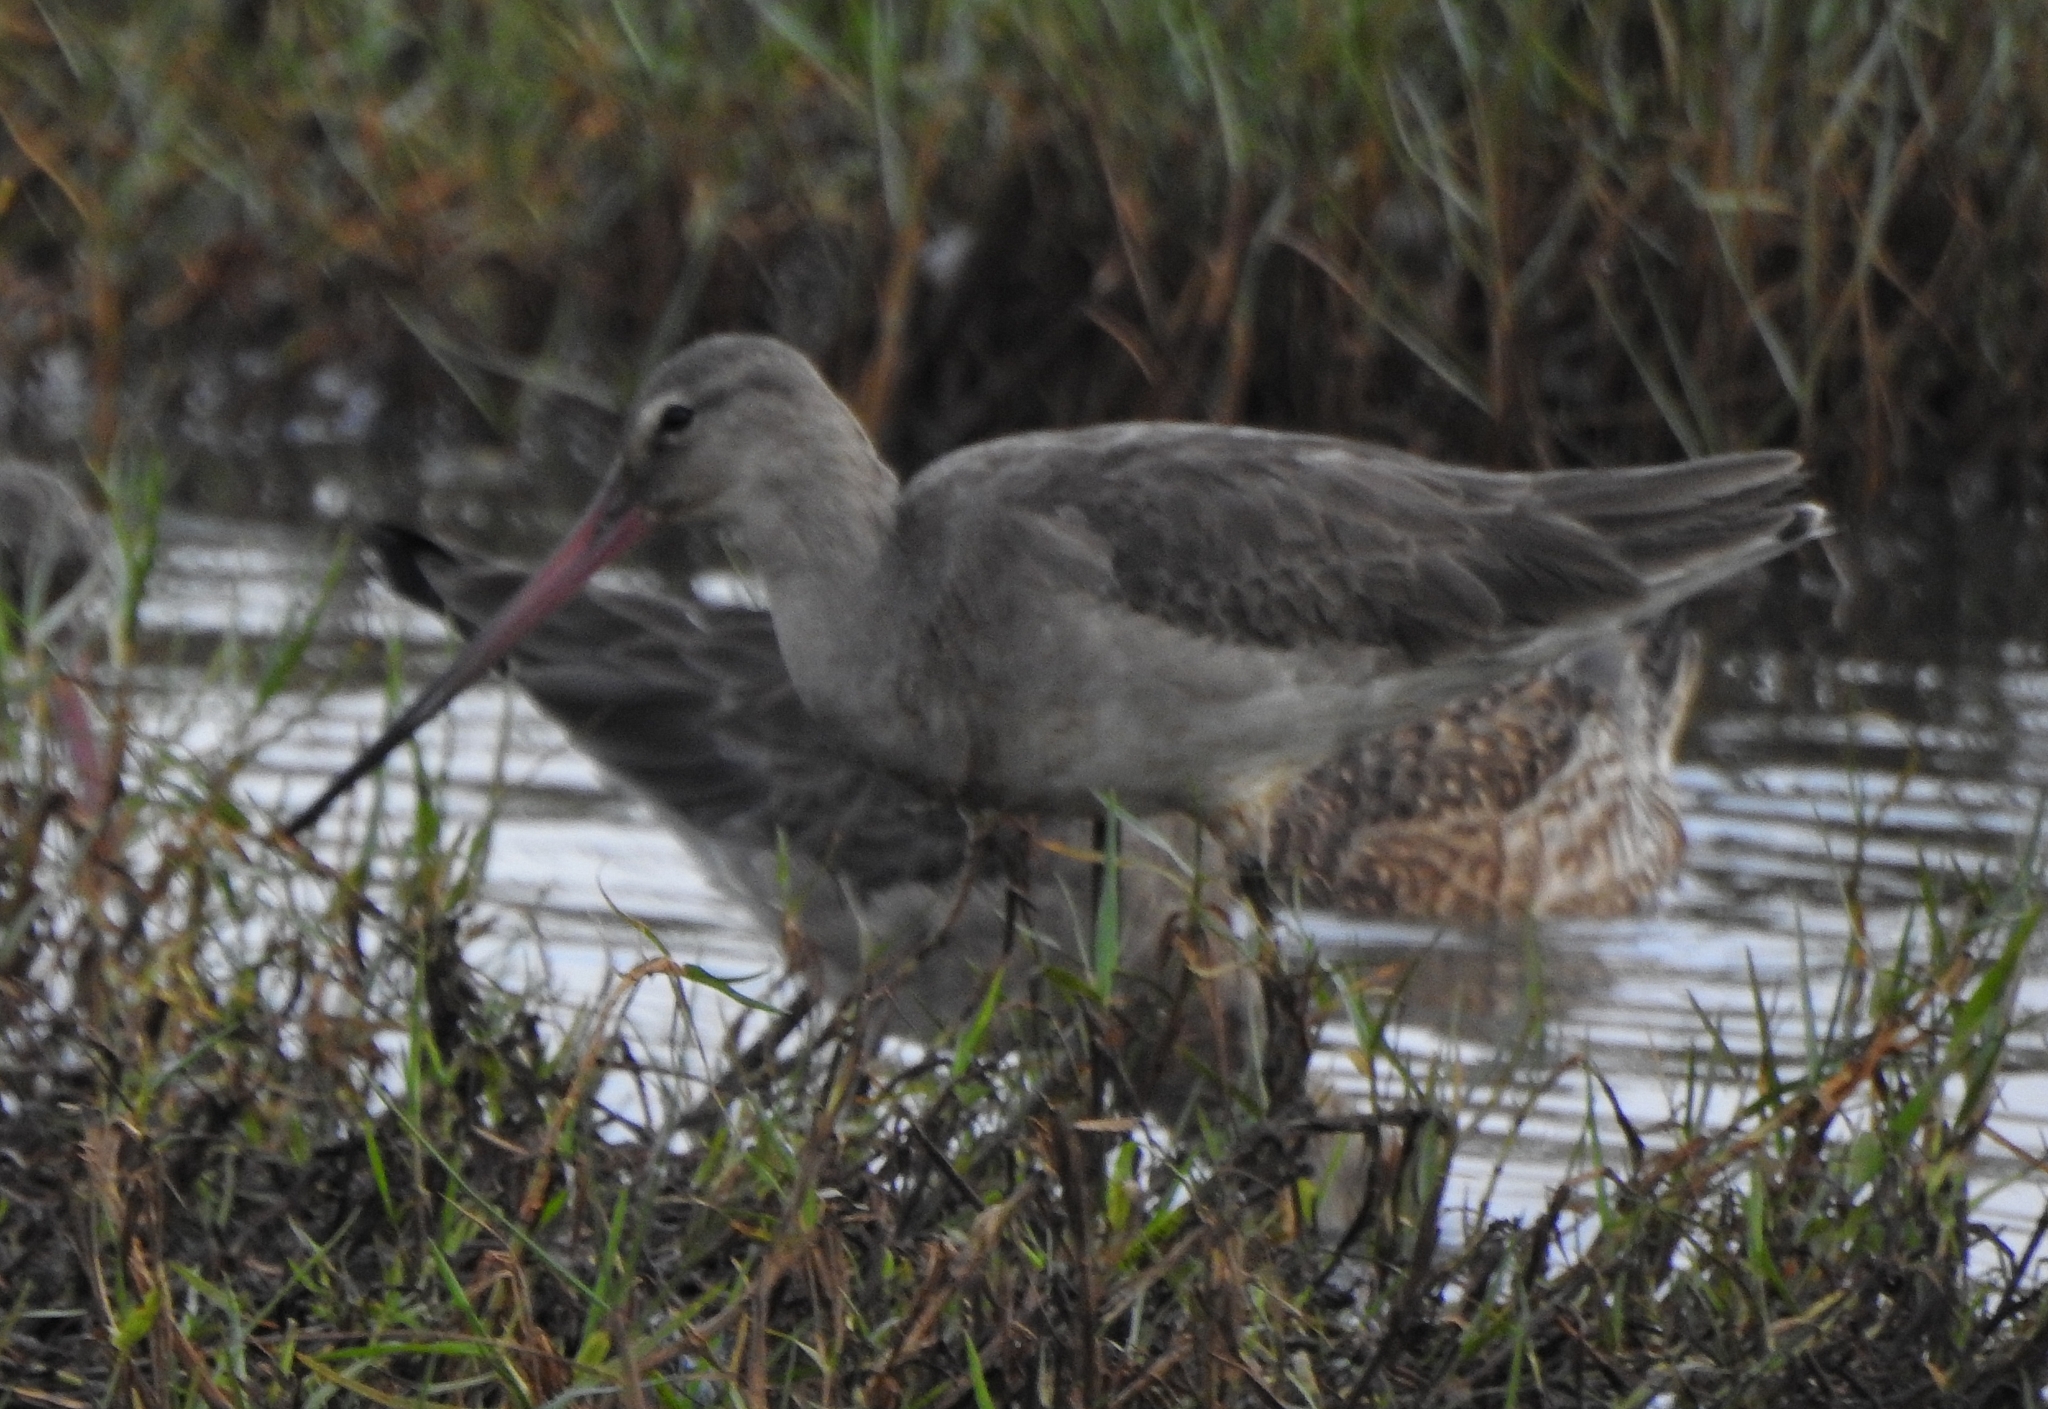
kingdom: Animalia
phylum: Chordata
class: Aves
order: Charadriiformes
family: Scolopacidae
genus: Limosa
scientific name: Limosa limosa
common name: Black-tailed godwit
